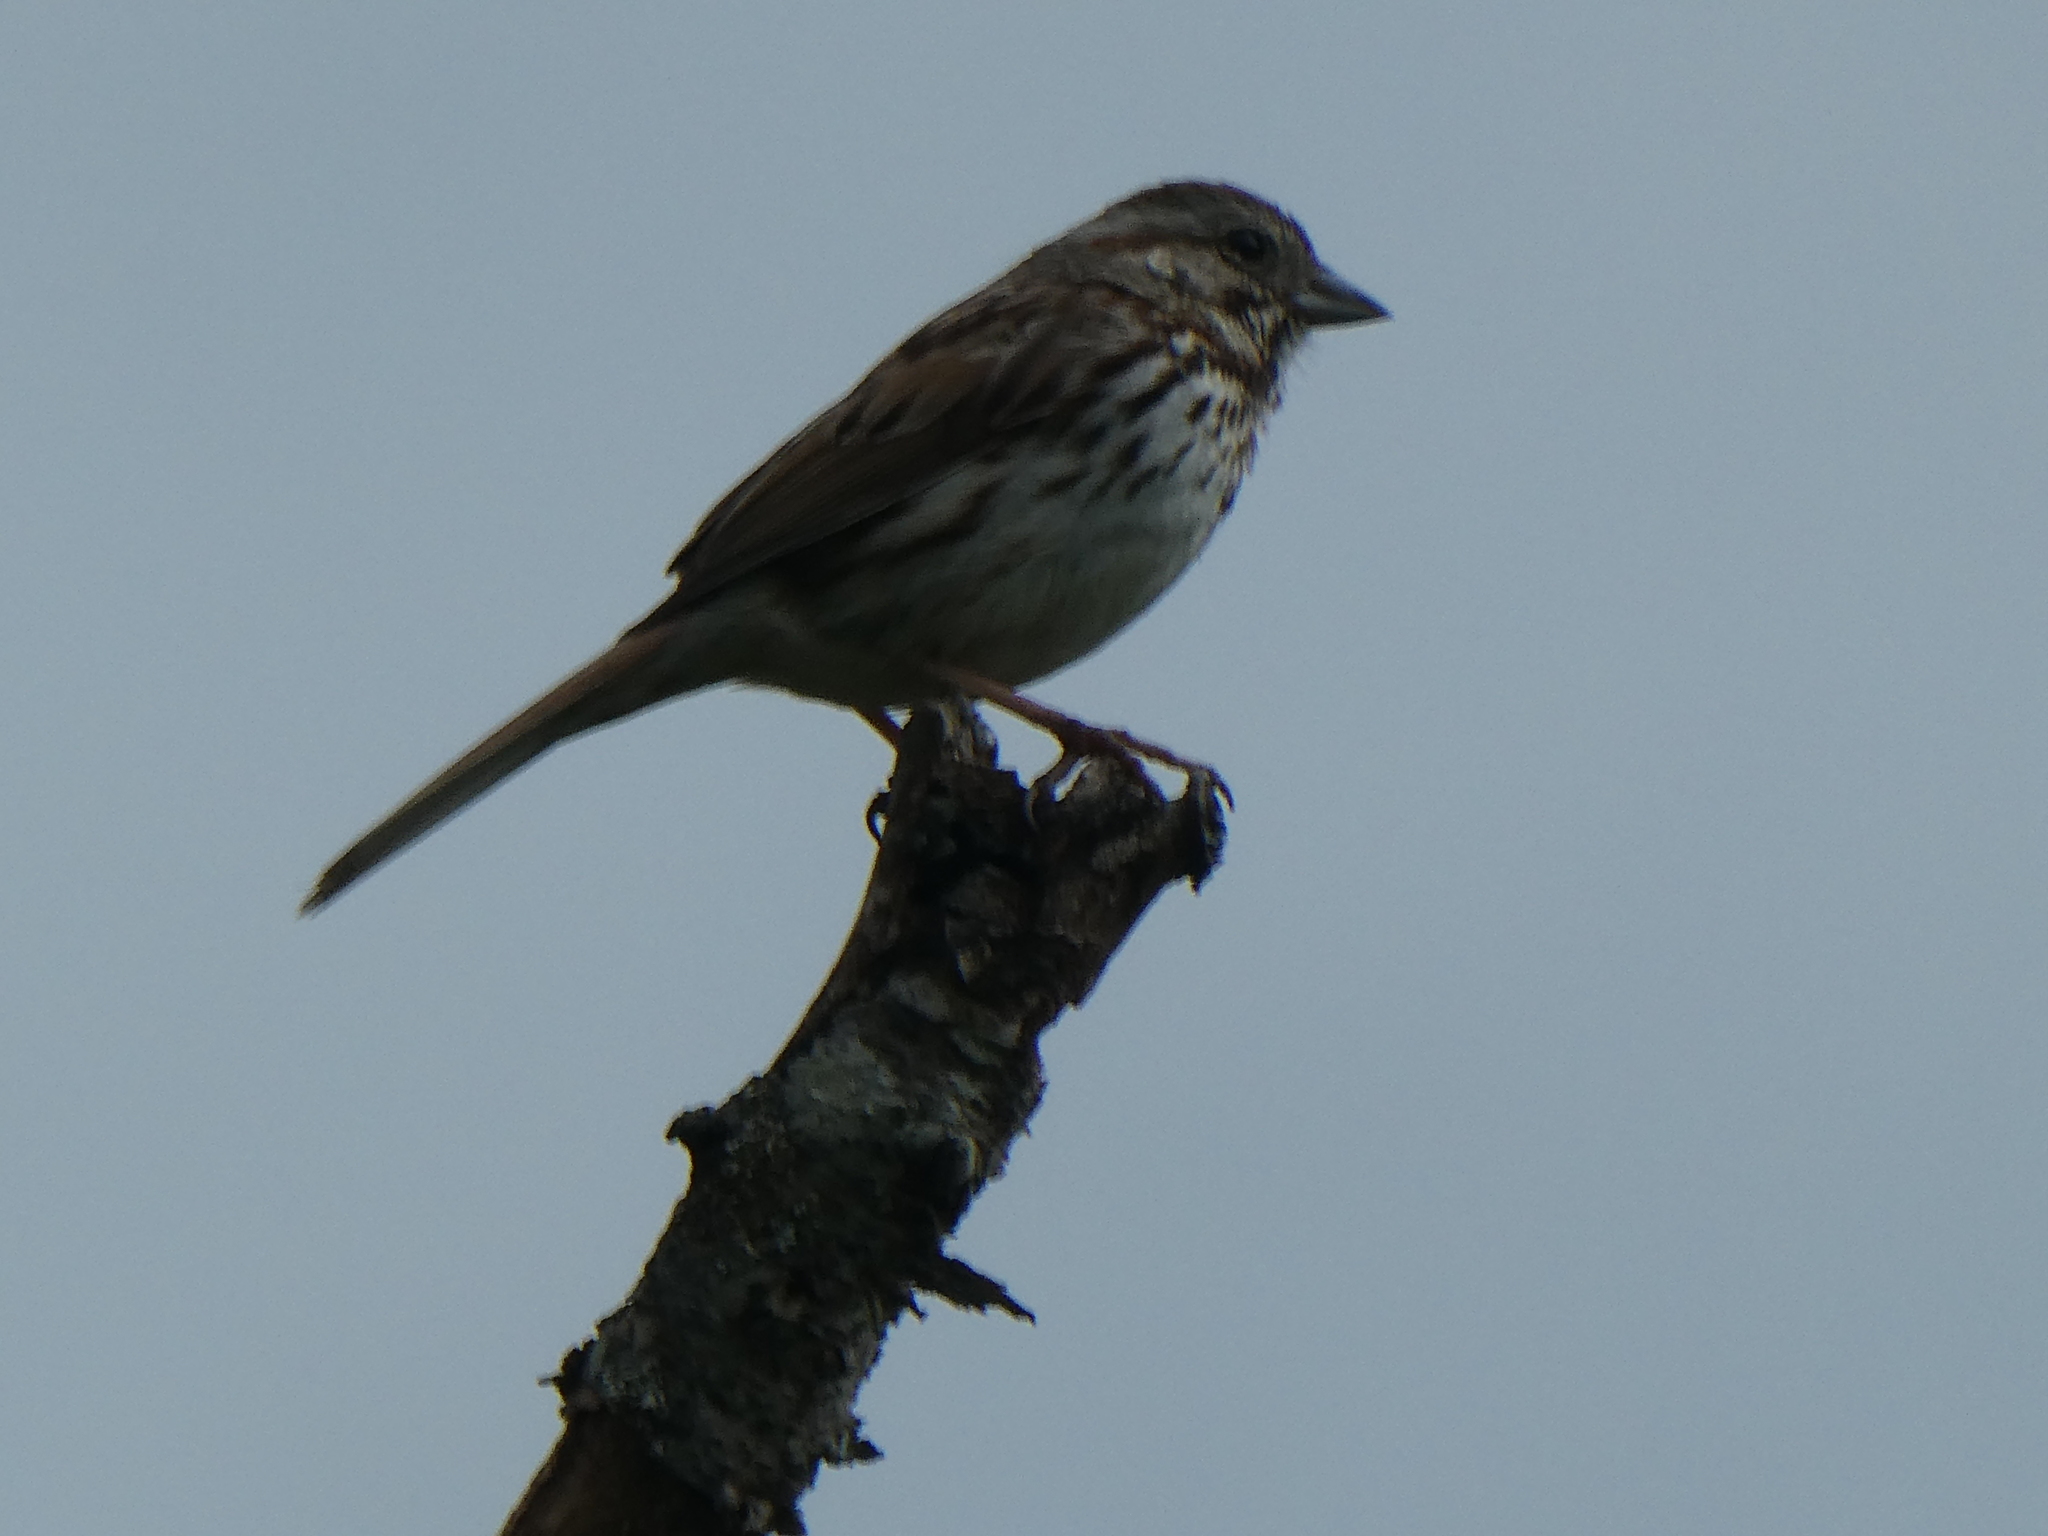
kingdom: Animalia
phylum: Chordata
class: Aves
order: Passeriformes
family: Passerellidae
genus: Melospiza
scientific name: Melospiza melodia
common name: Song sparrow
